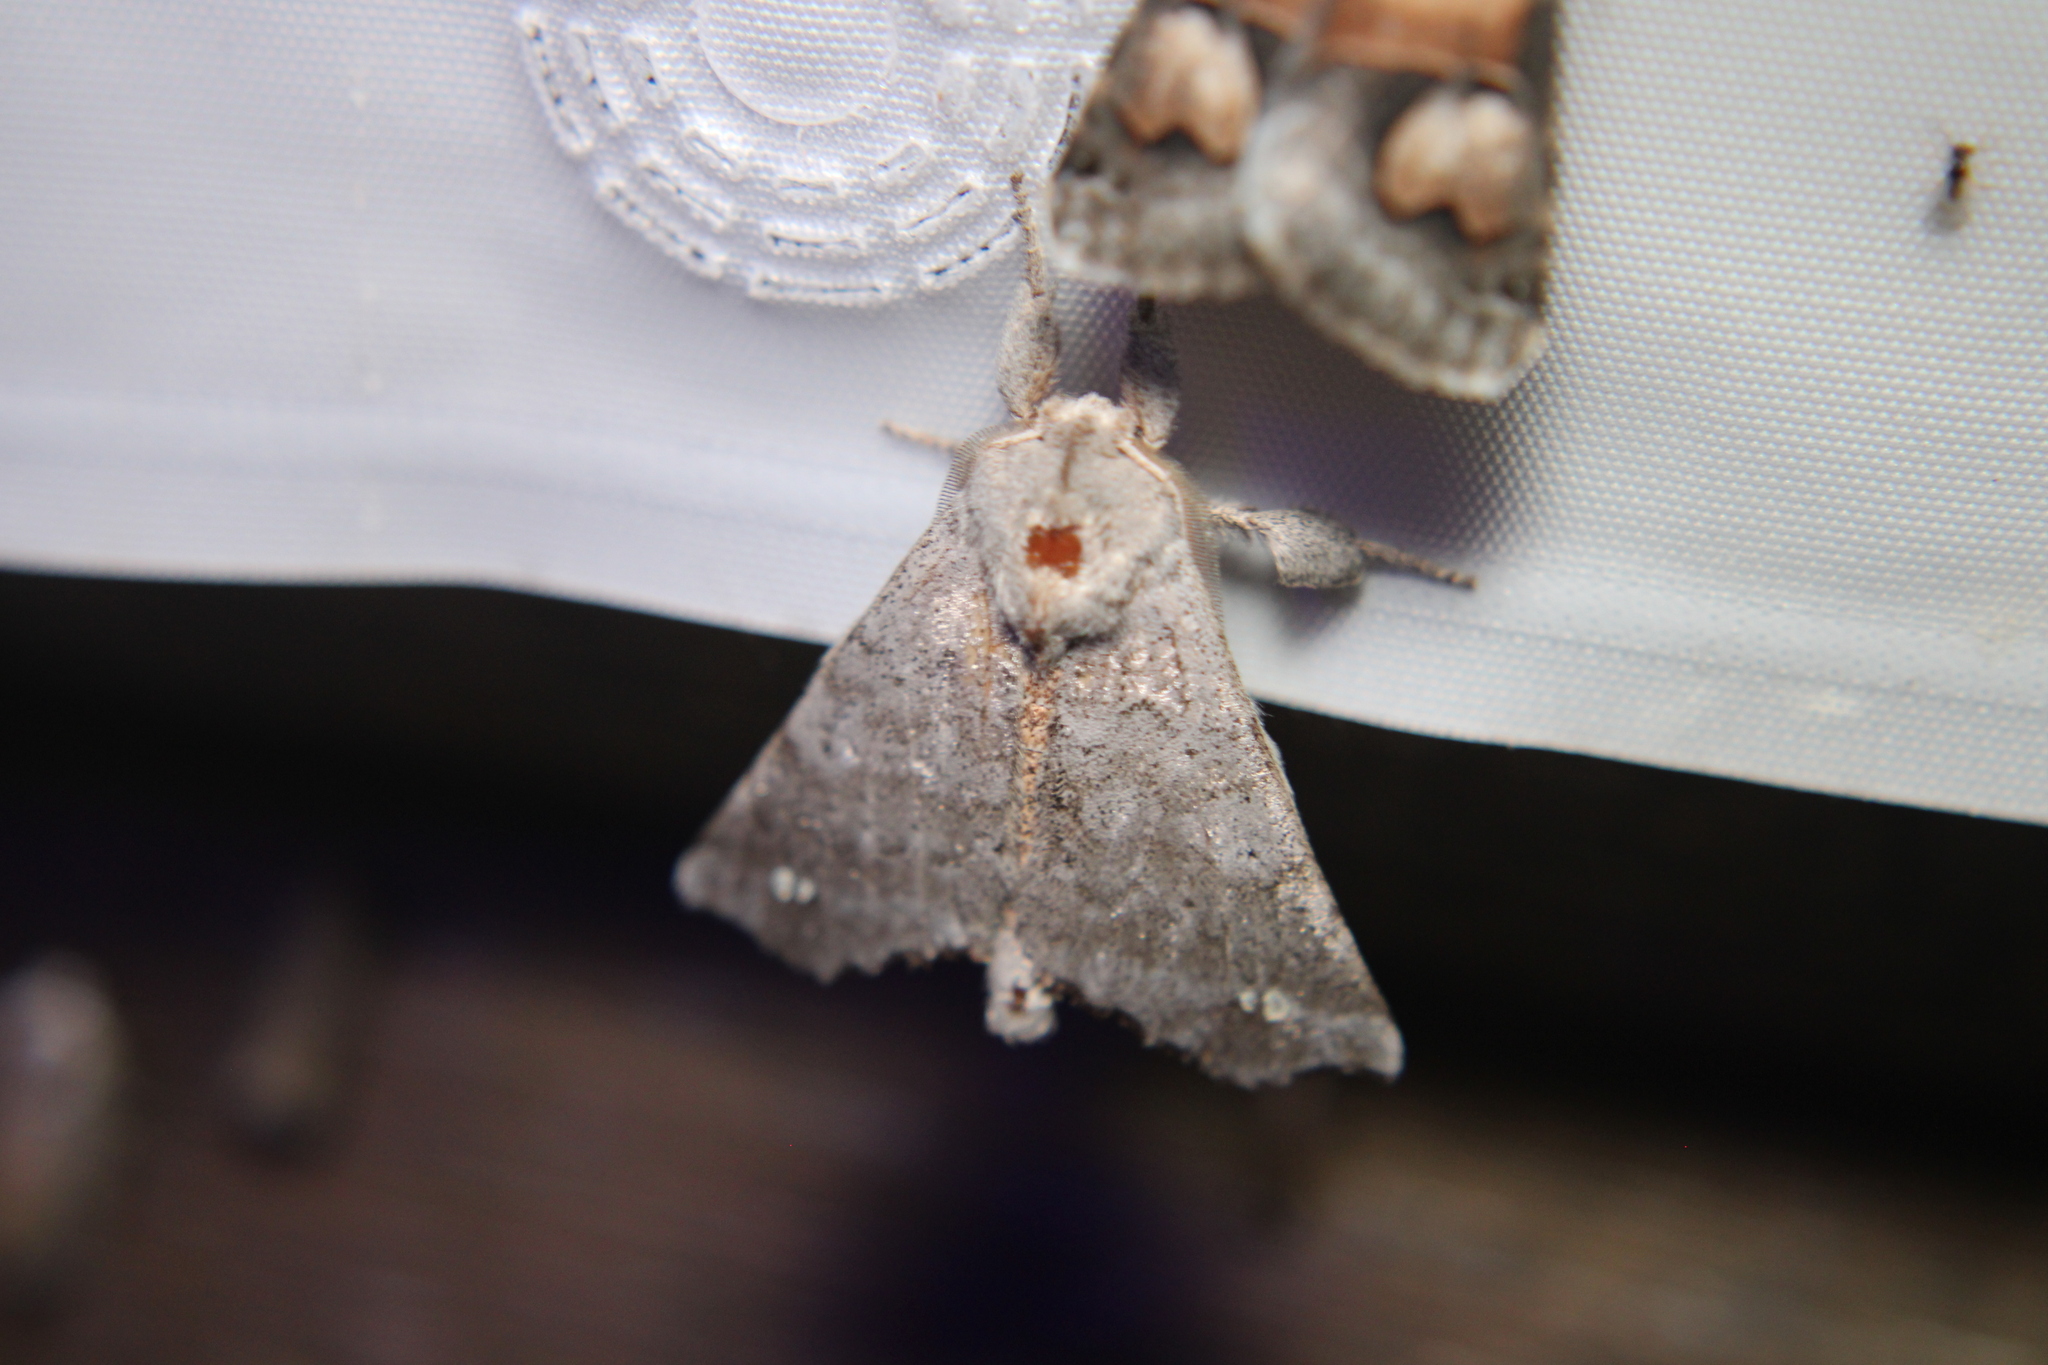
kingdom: Animalia
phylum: Arthropoda
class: Insecta
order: Lepidoptera
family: Apatelodidae
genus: Olceclostera
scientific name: Olceclostera angelica
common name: Angel moth
